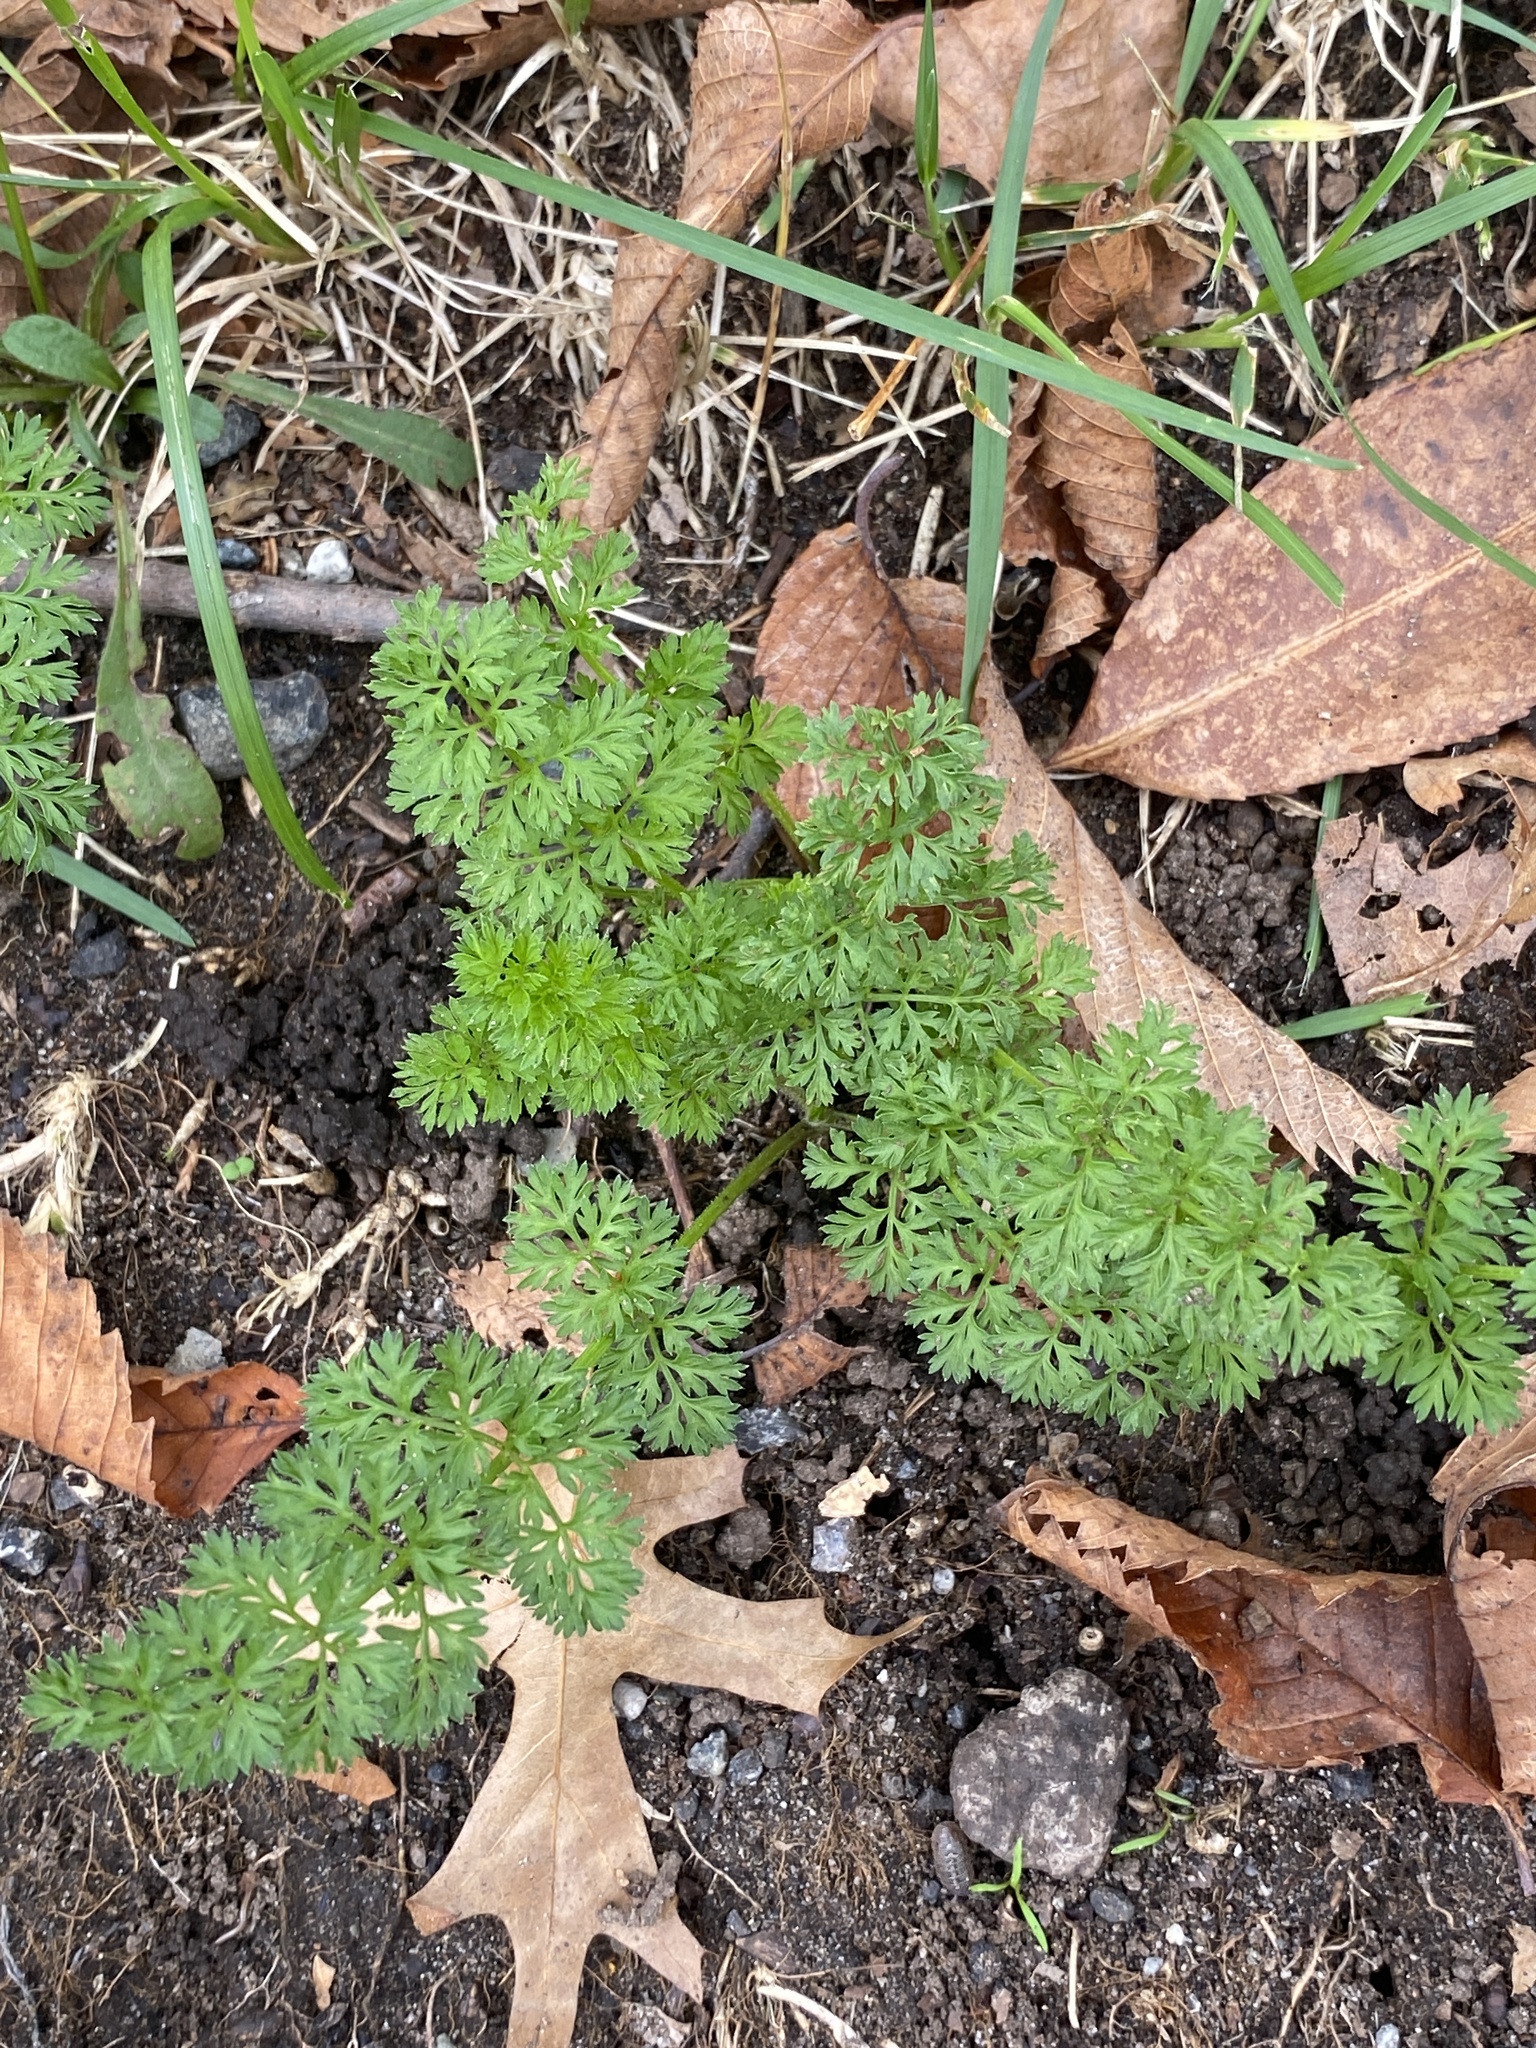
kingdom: Plantae
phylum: Tracheophyta
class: Magnoliopsida
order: Apiales
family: Apiaceae
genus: Daucus
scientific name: Daucus carota
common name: Wild carrot
